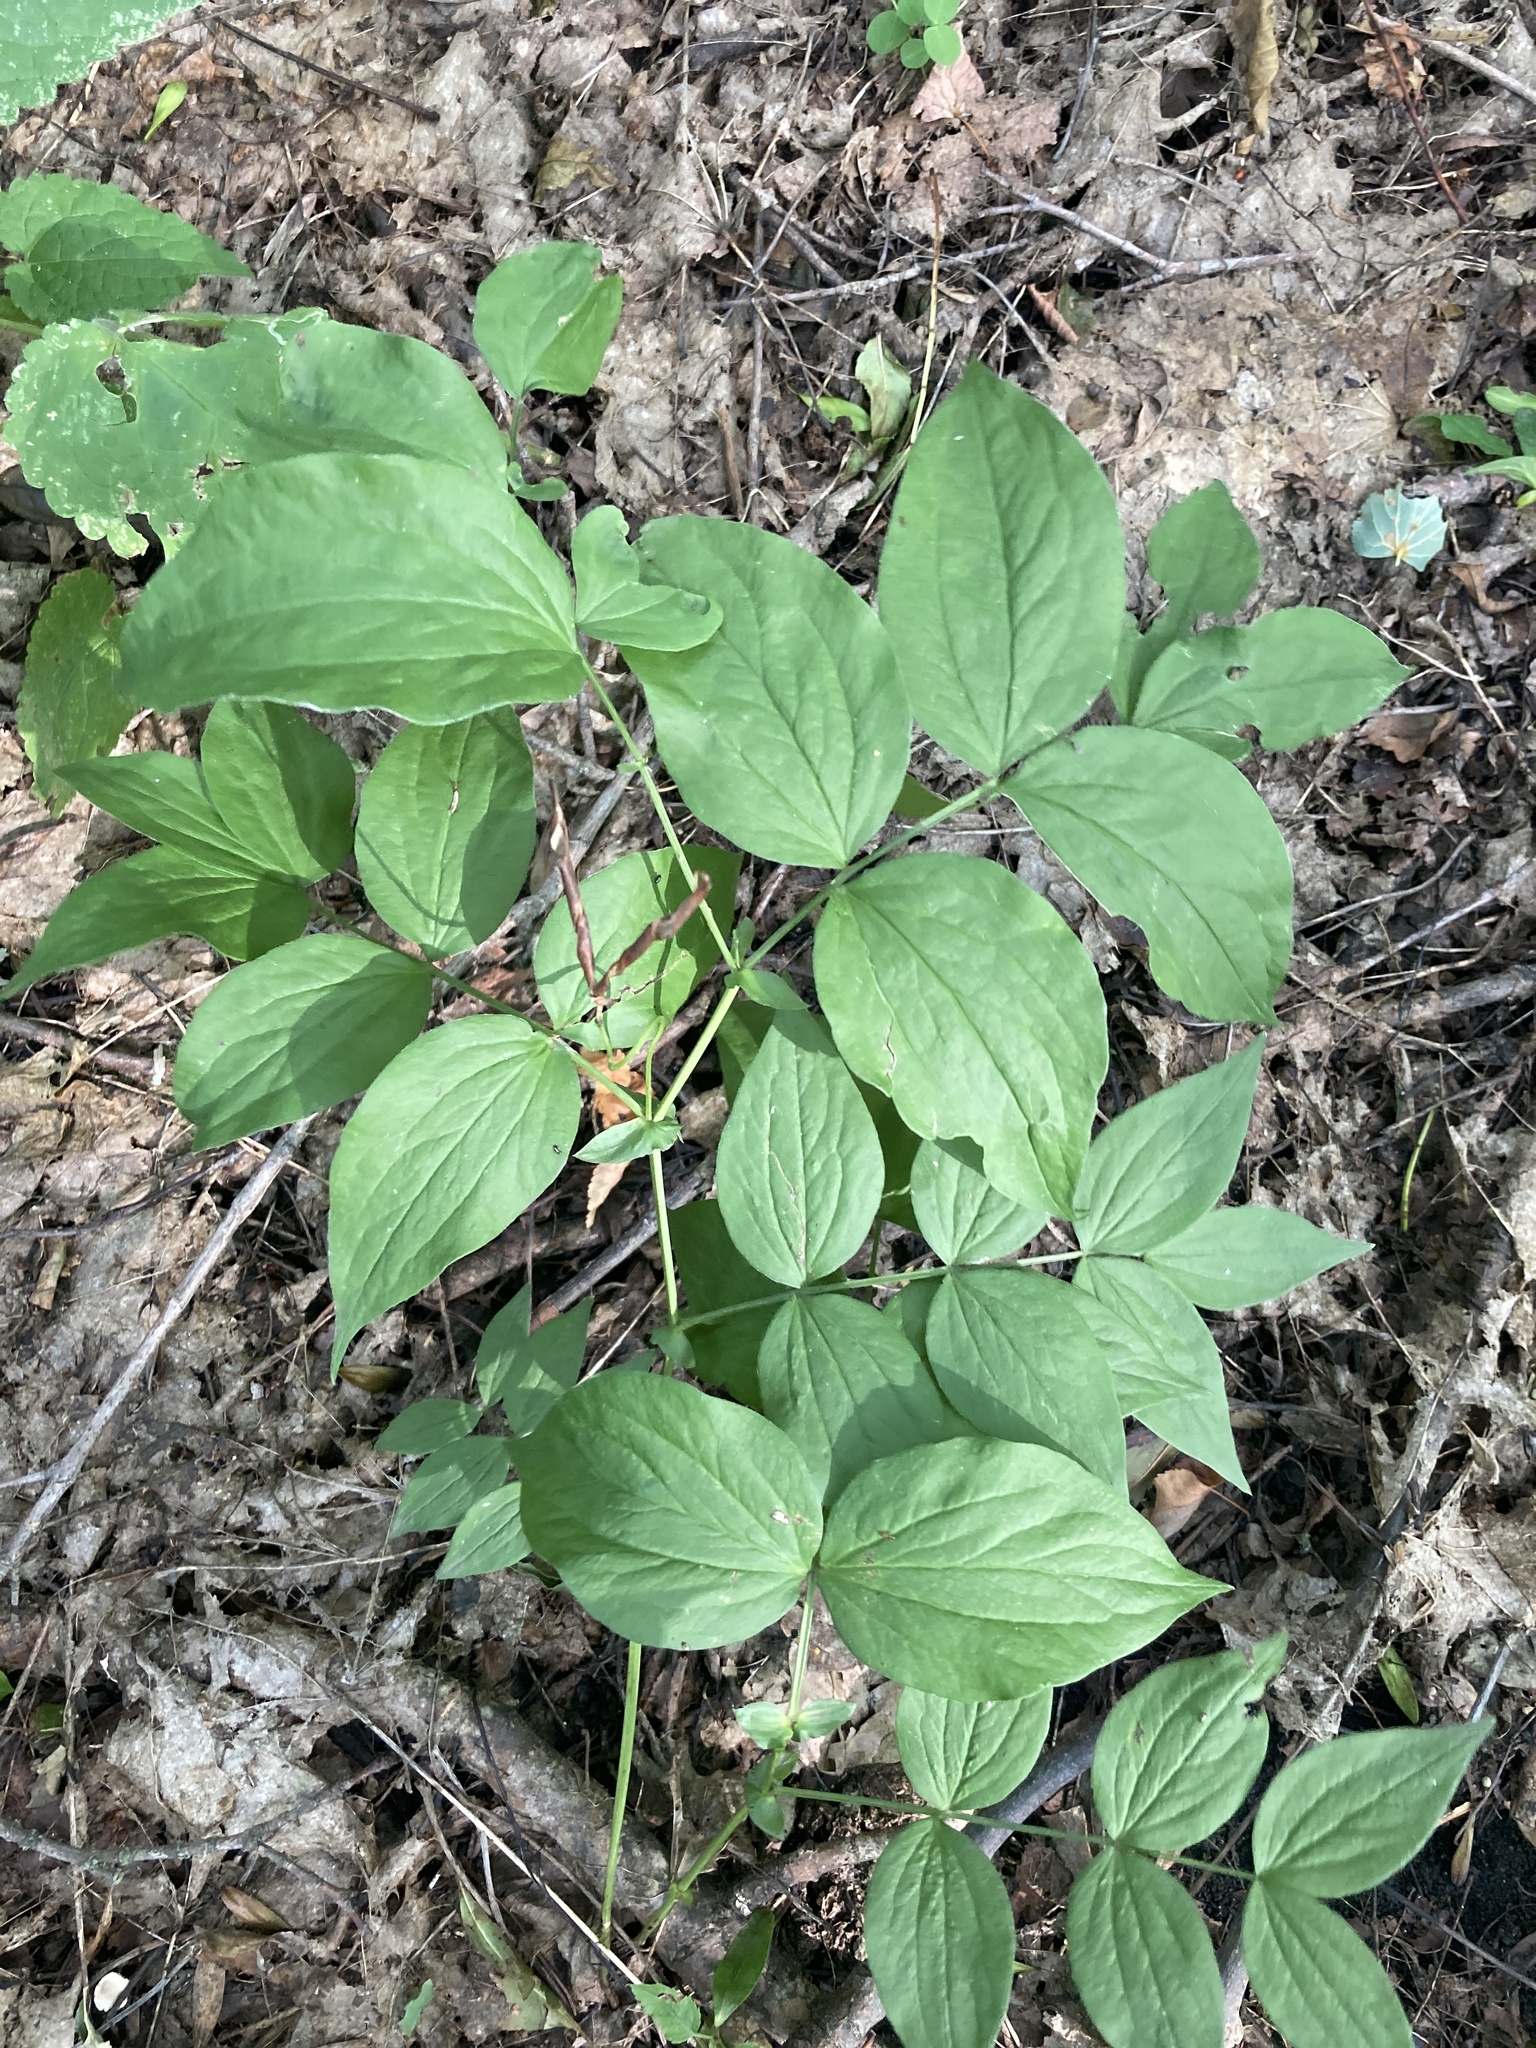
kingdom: Plantae
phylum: Tracheophyta
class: Magnoliopsida
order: Fabales
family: Fabaceae
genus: Lathyrus
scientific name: Lathyrus vernus
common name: Spring pea
